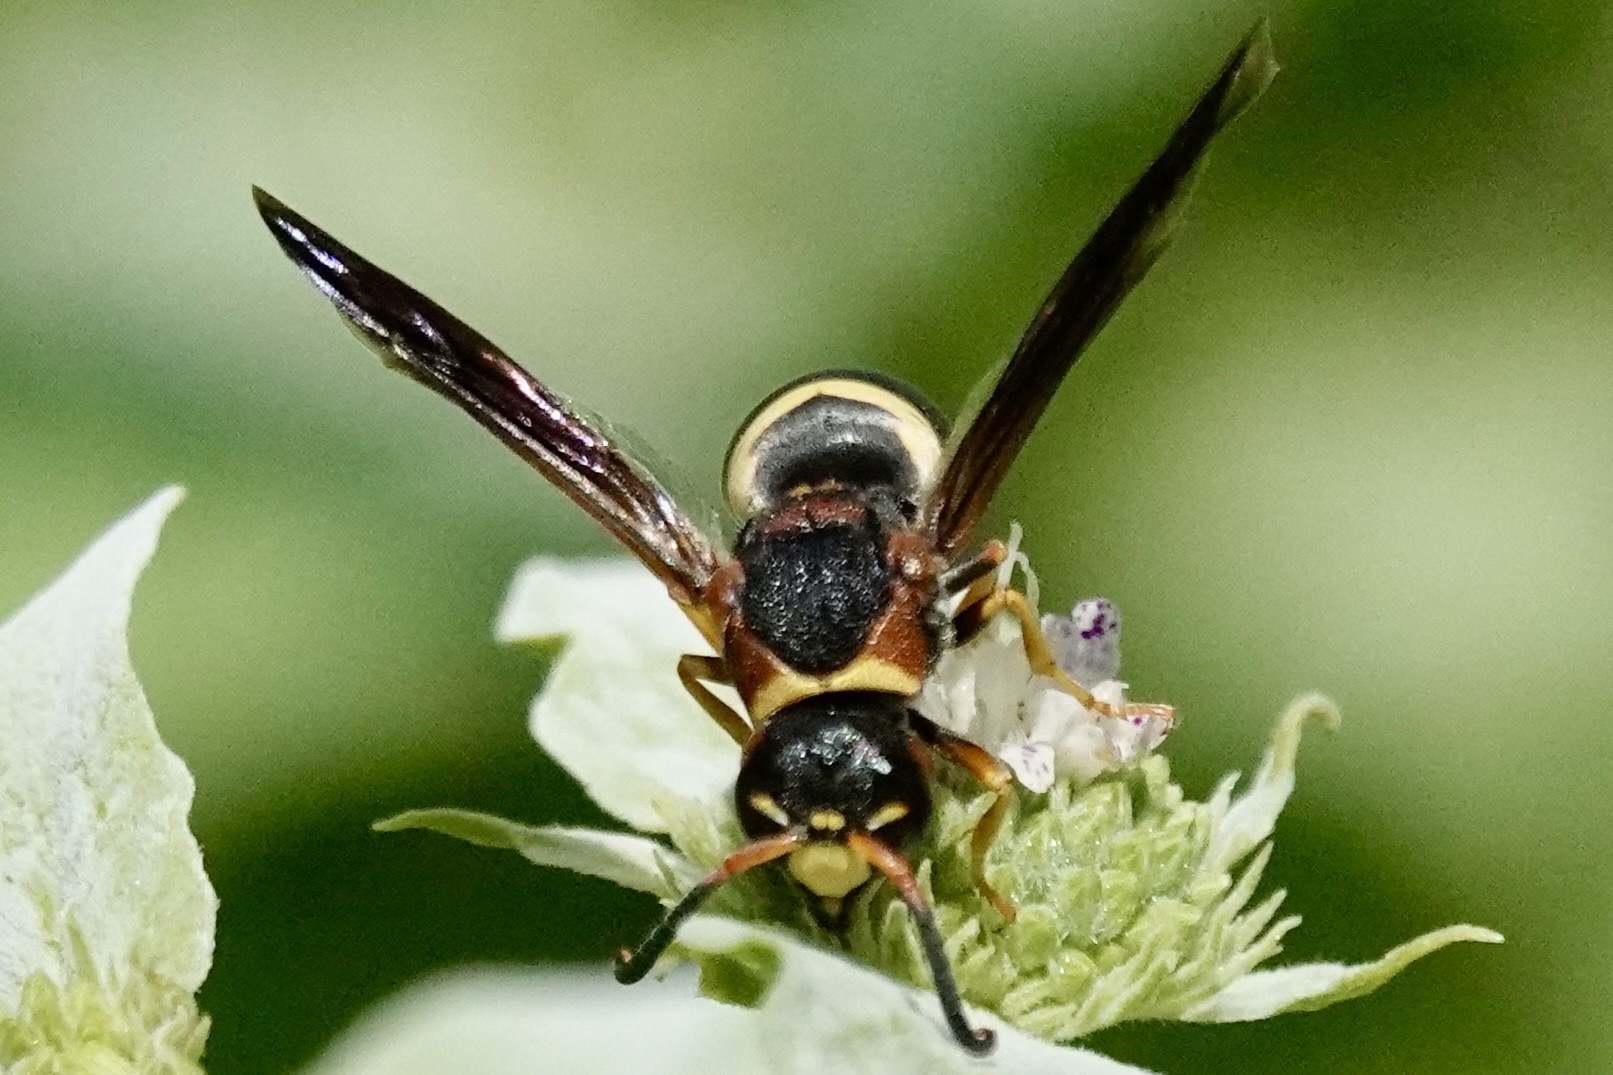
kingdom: Animalia
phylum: Arthropoda
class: Insecta
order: Hymenoptera
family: Eumenidae
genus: Euodynerus
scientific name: Euodynerus crypticus
